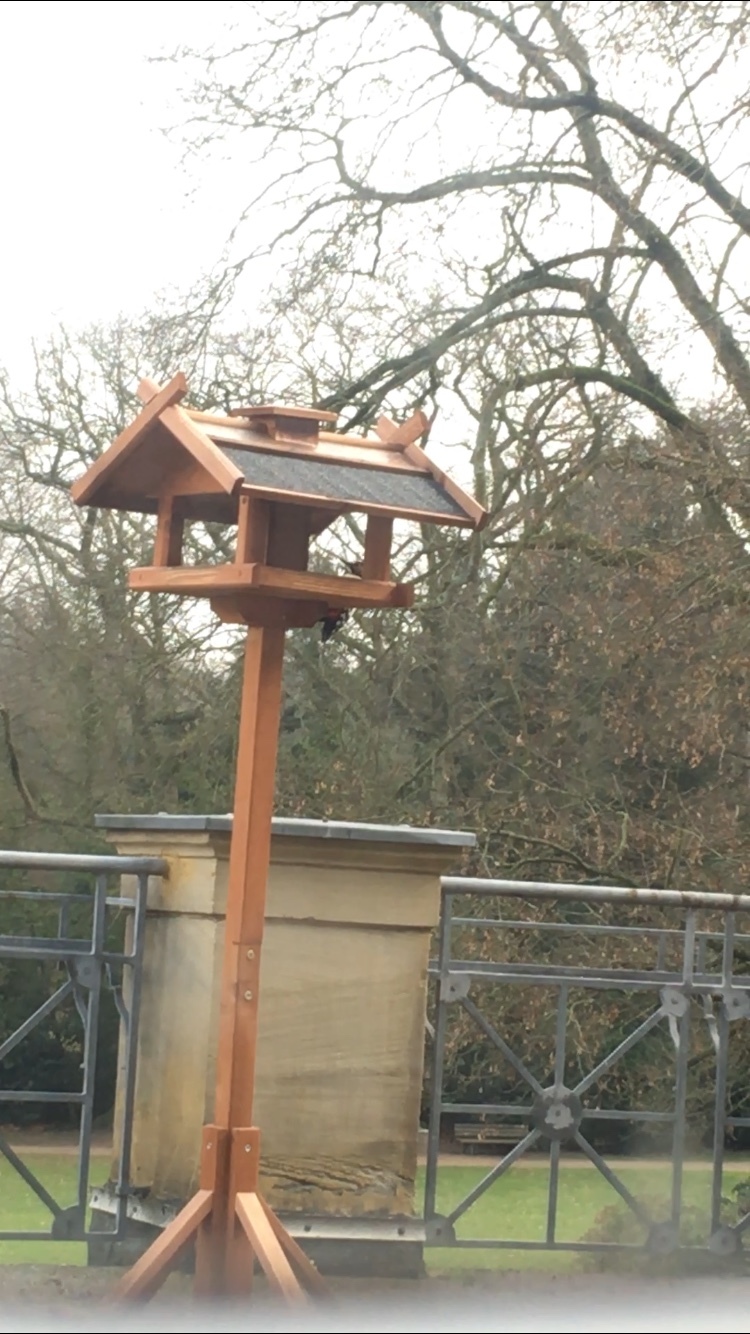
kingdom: Animalia
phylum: Chordata
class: Aves
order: Piciformes
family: Picidae
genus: Dendrocopos
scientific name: Dendrocopos major
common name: Great spotted woodpecker
